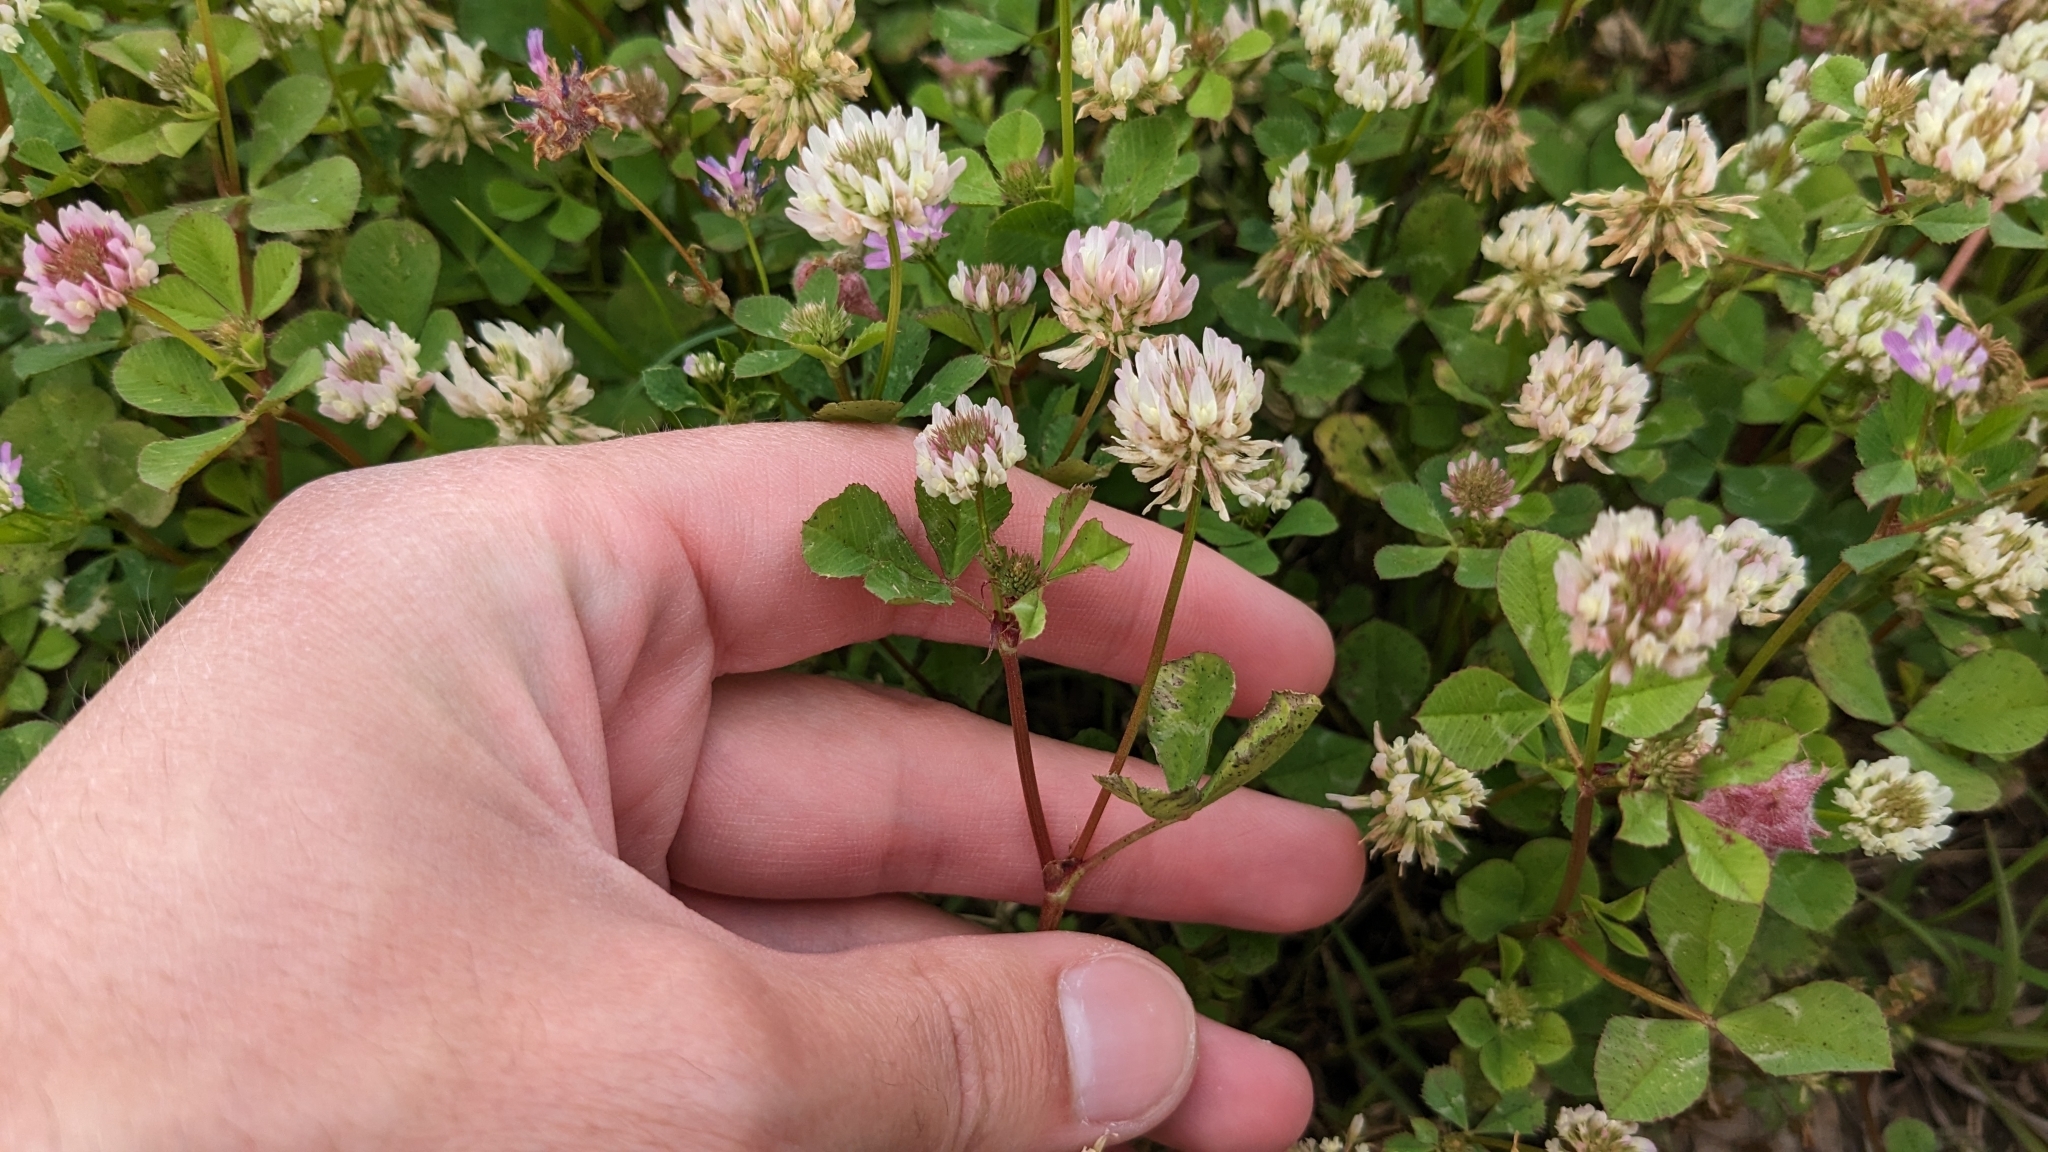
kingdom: Plantae
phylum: Tracheophyta
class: Magnoliopsida
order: Fabales
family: Fabaceae
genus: Trifolium
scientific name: Trifolium nigrescens
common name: Small white clover
